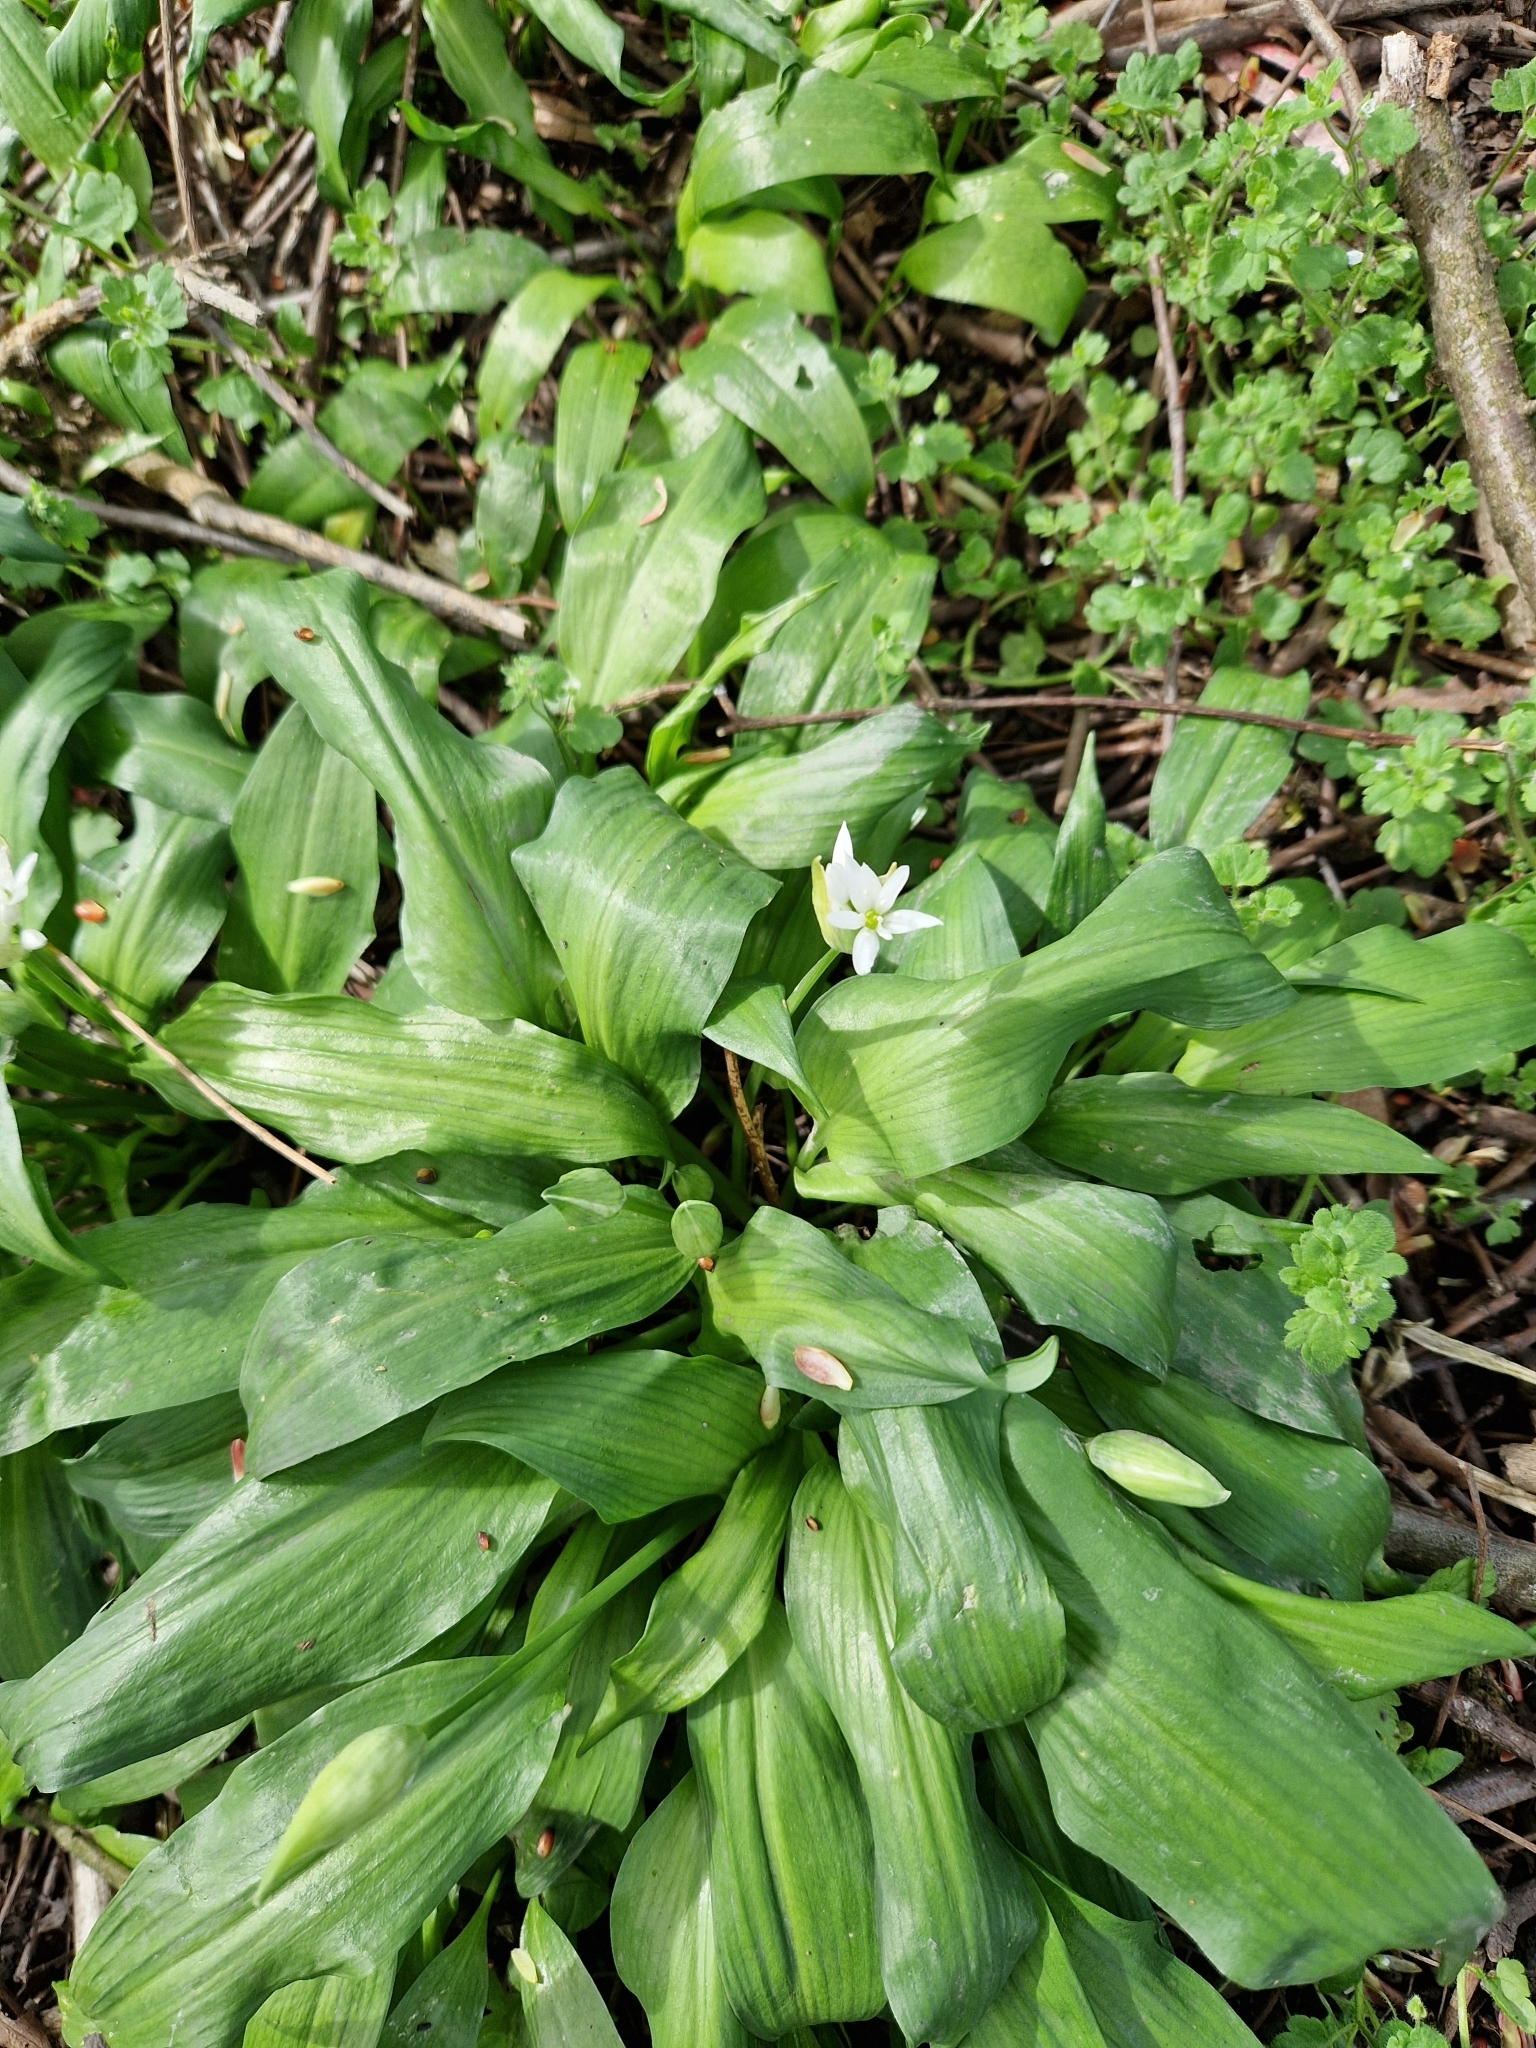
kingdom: Plantae
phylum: Tracheophyta
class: Liliopsida
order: Asparagales
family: Amaryllidaceae
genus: Allium
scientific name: Allium ursinum
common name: Ramsons
